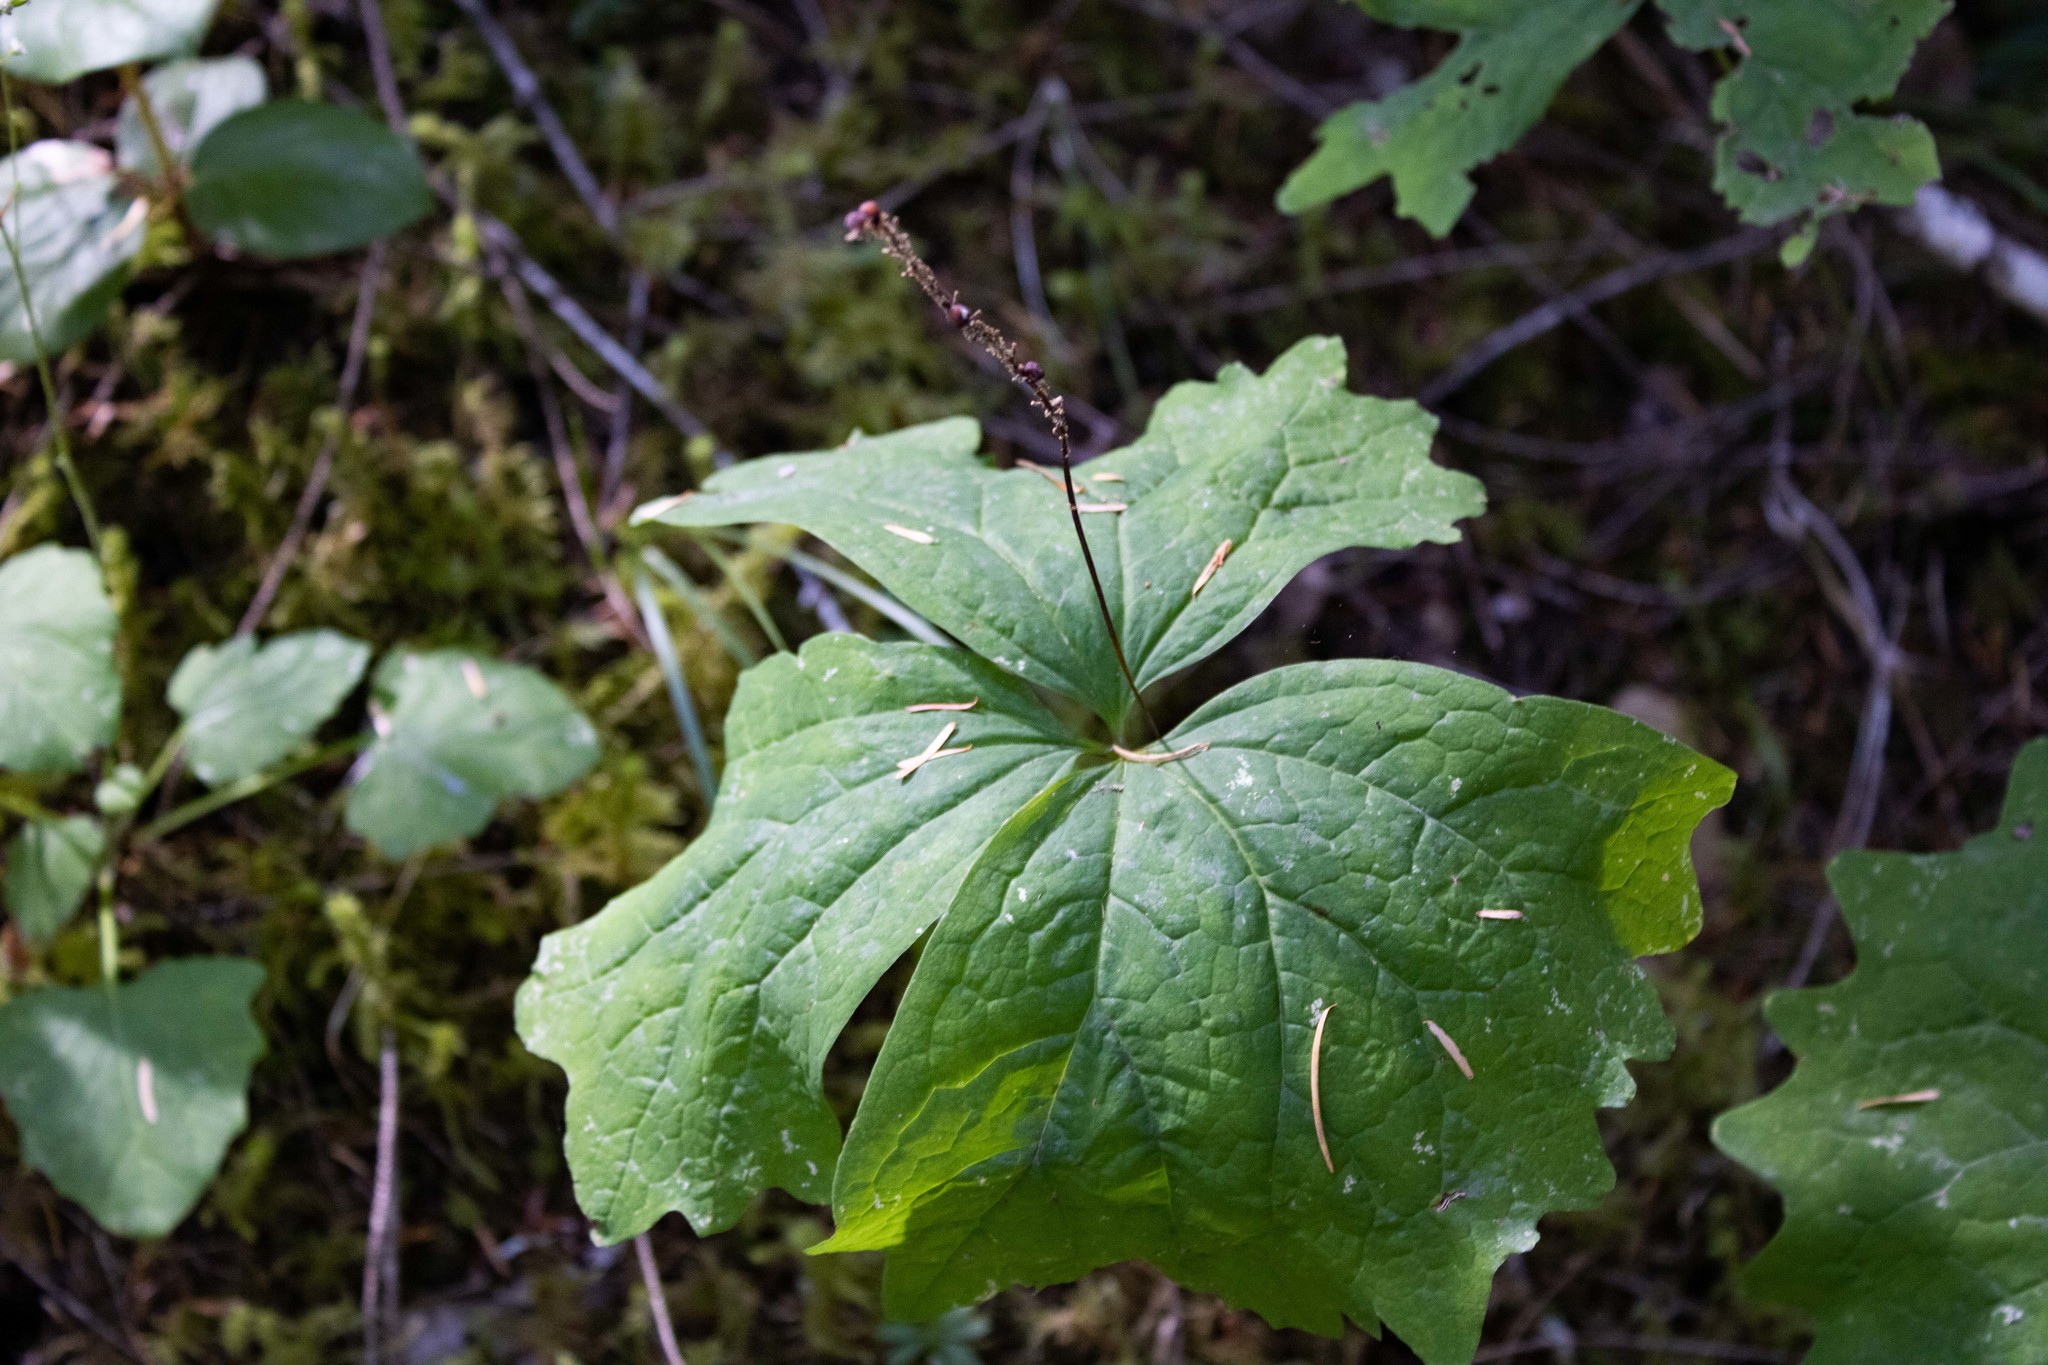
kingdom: Plantae
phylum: Tracheophyta
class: Magnoliopsida
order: Ranunculales
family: Berberidaceae
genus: Achlys
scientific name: Achlys triphylla
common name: Vanilla-leaf
